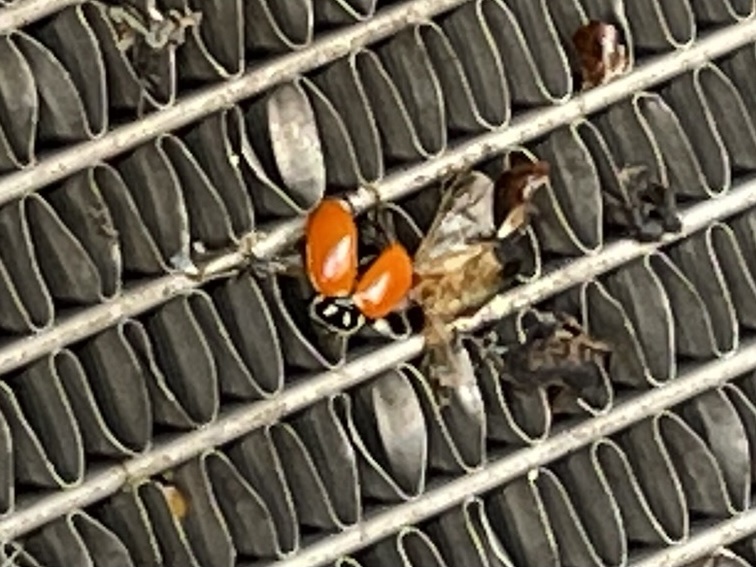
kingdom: Animalia
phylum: Arthropoda
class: Insecta
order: Coleoptera
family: Coccinellidae
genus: Hippodamia
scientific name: Hippodamia convergens
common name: Convergent lady beetle
